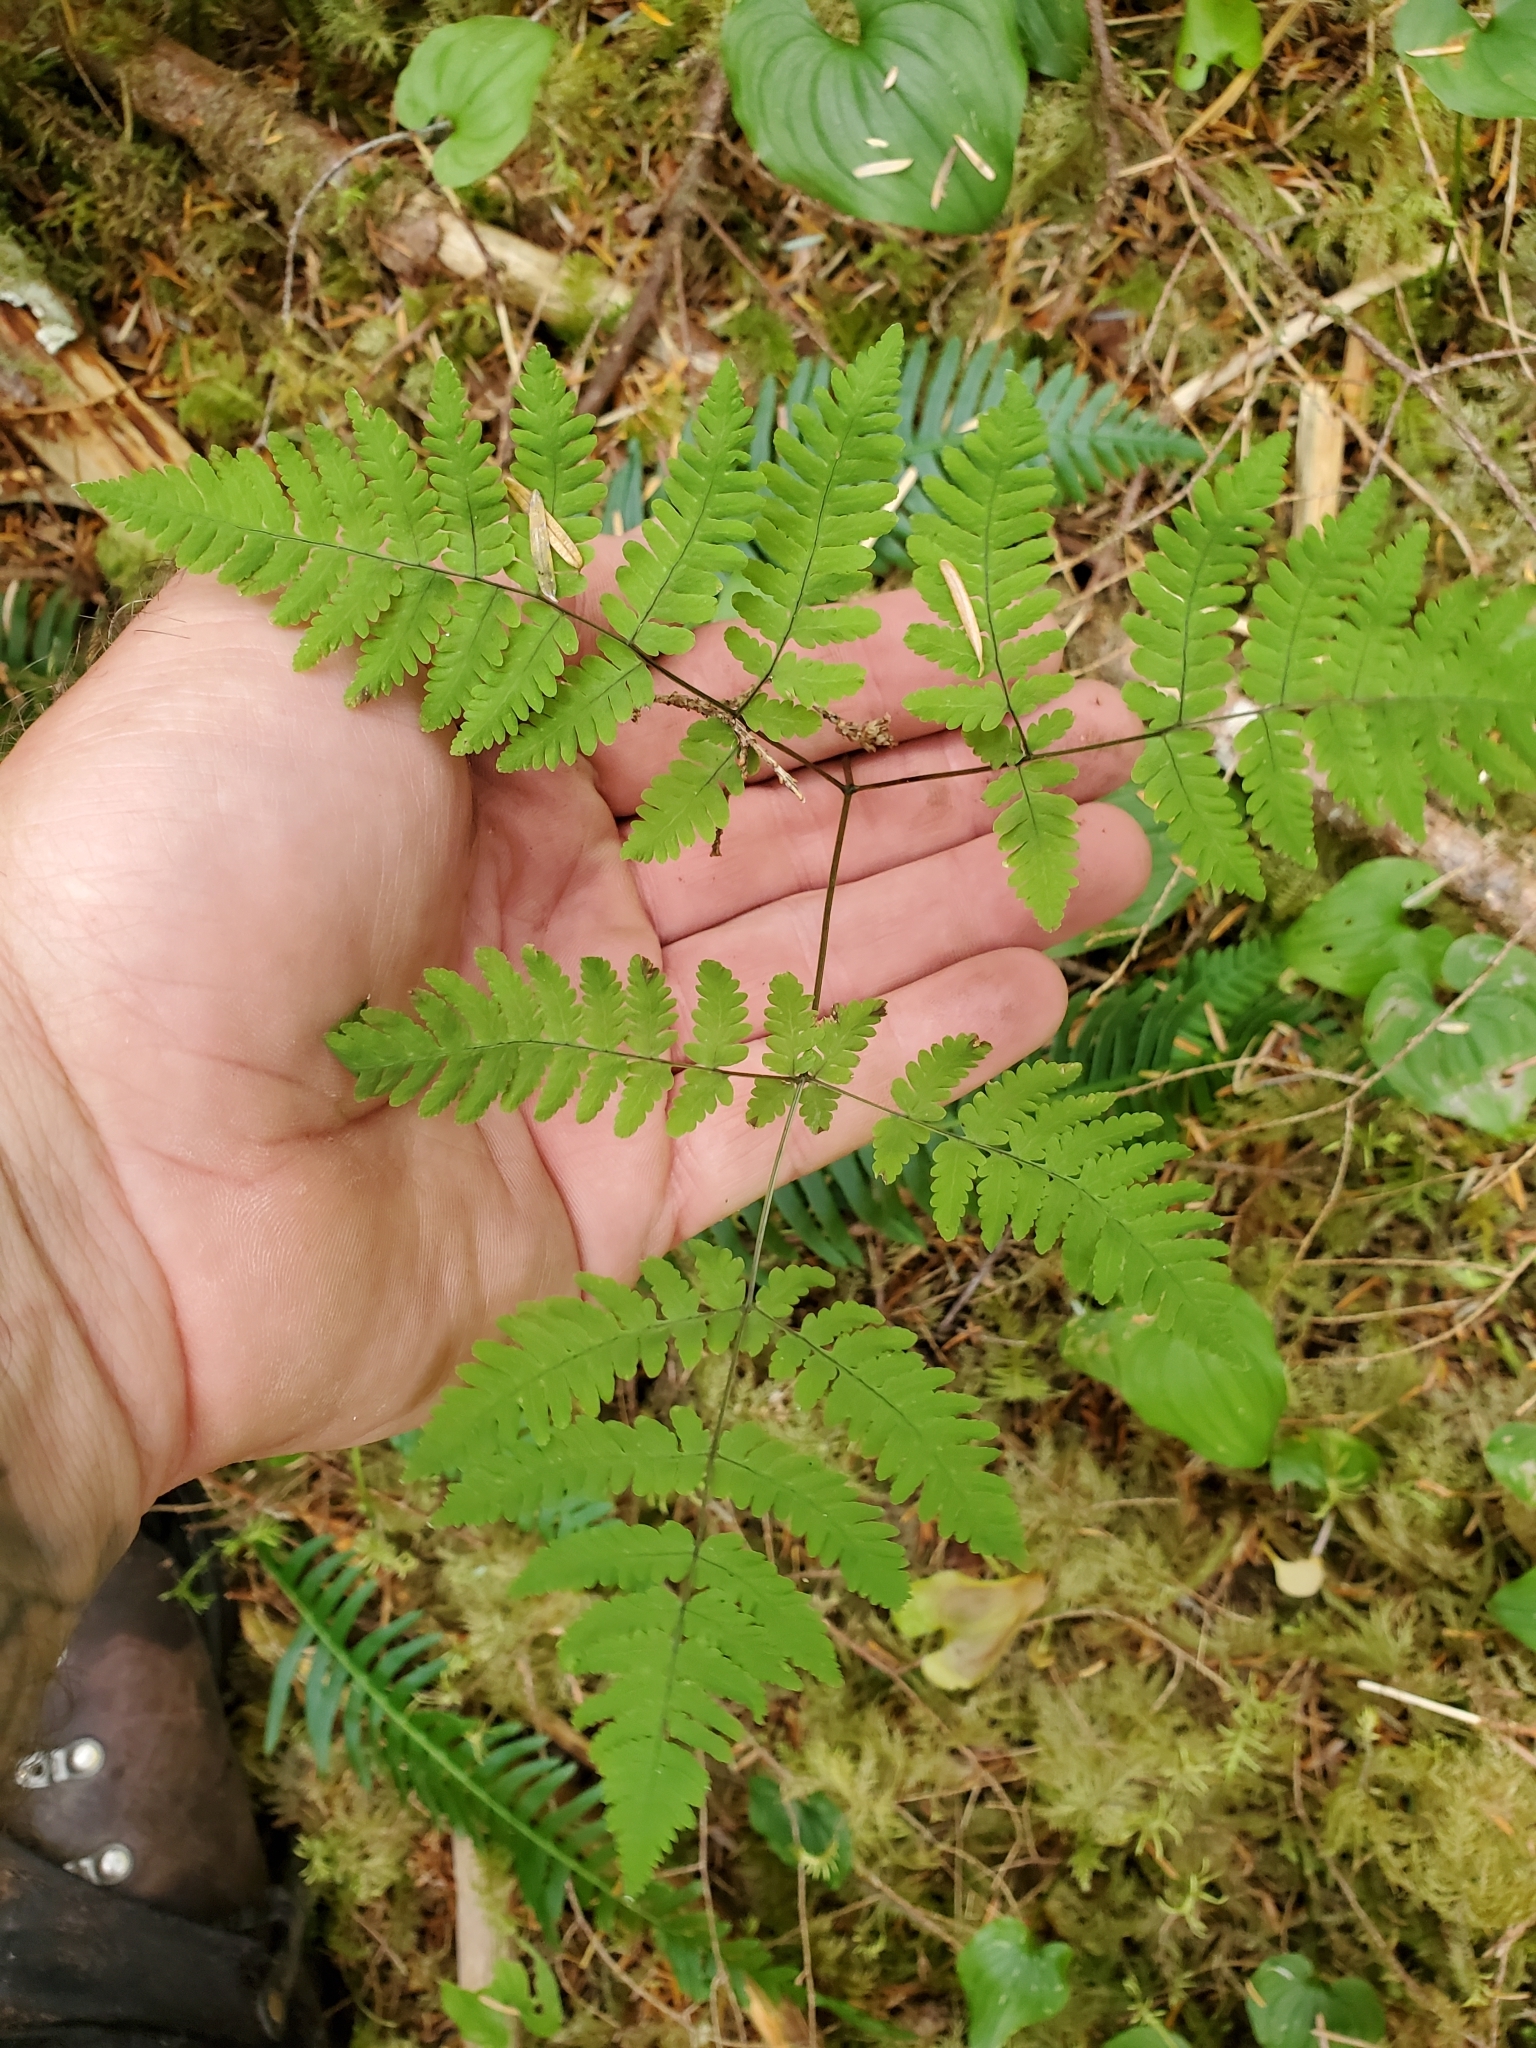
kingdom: Plantae
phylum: Tracheophyta
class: Polypodiopsida
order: Polypodiales
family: Cystopteridaceae
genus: Gymnocarpium
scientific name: Gymnocarpium disjunctum
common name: Western oak fern
